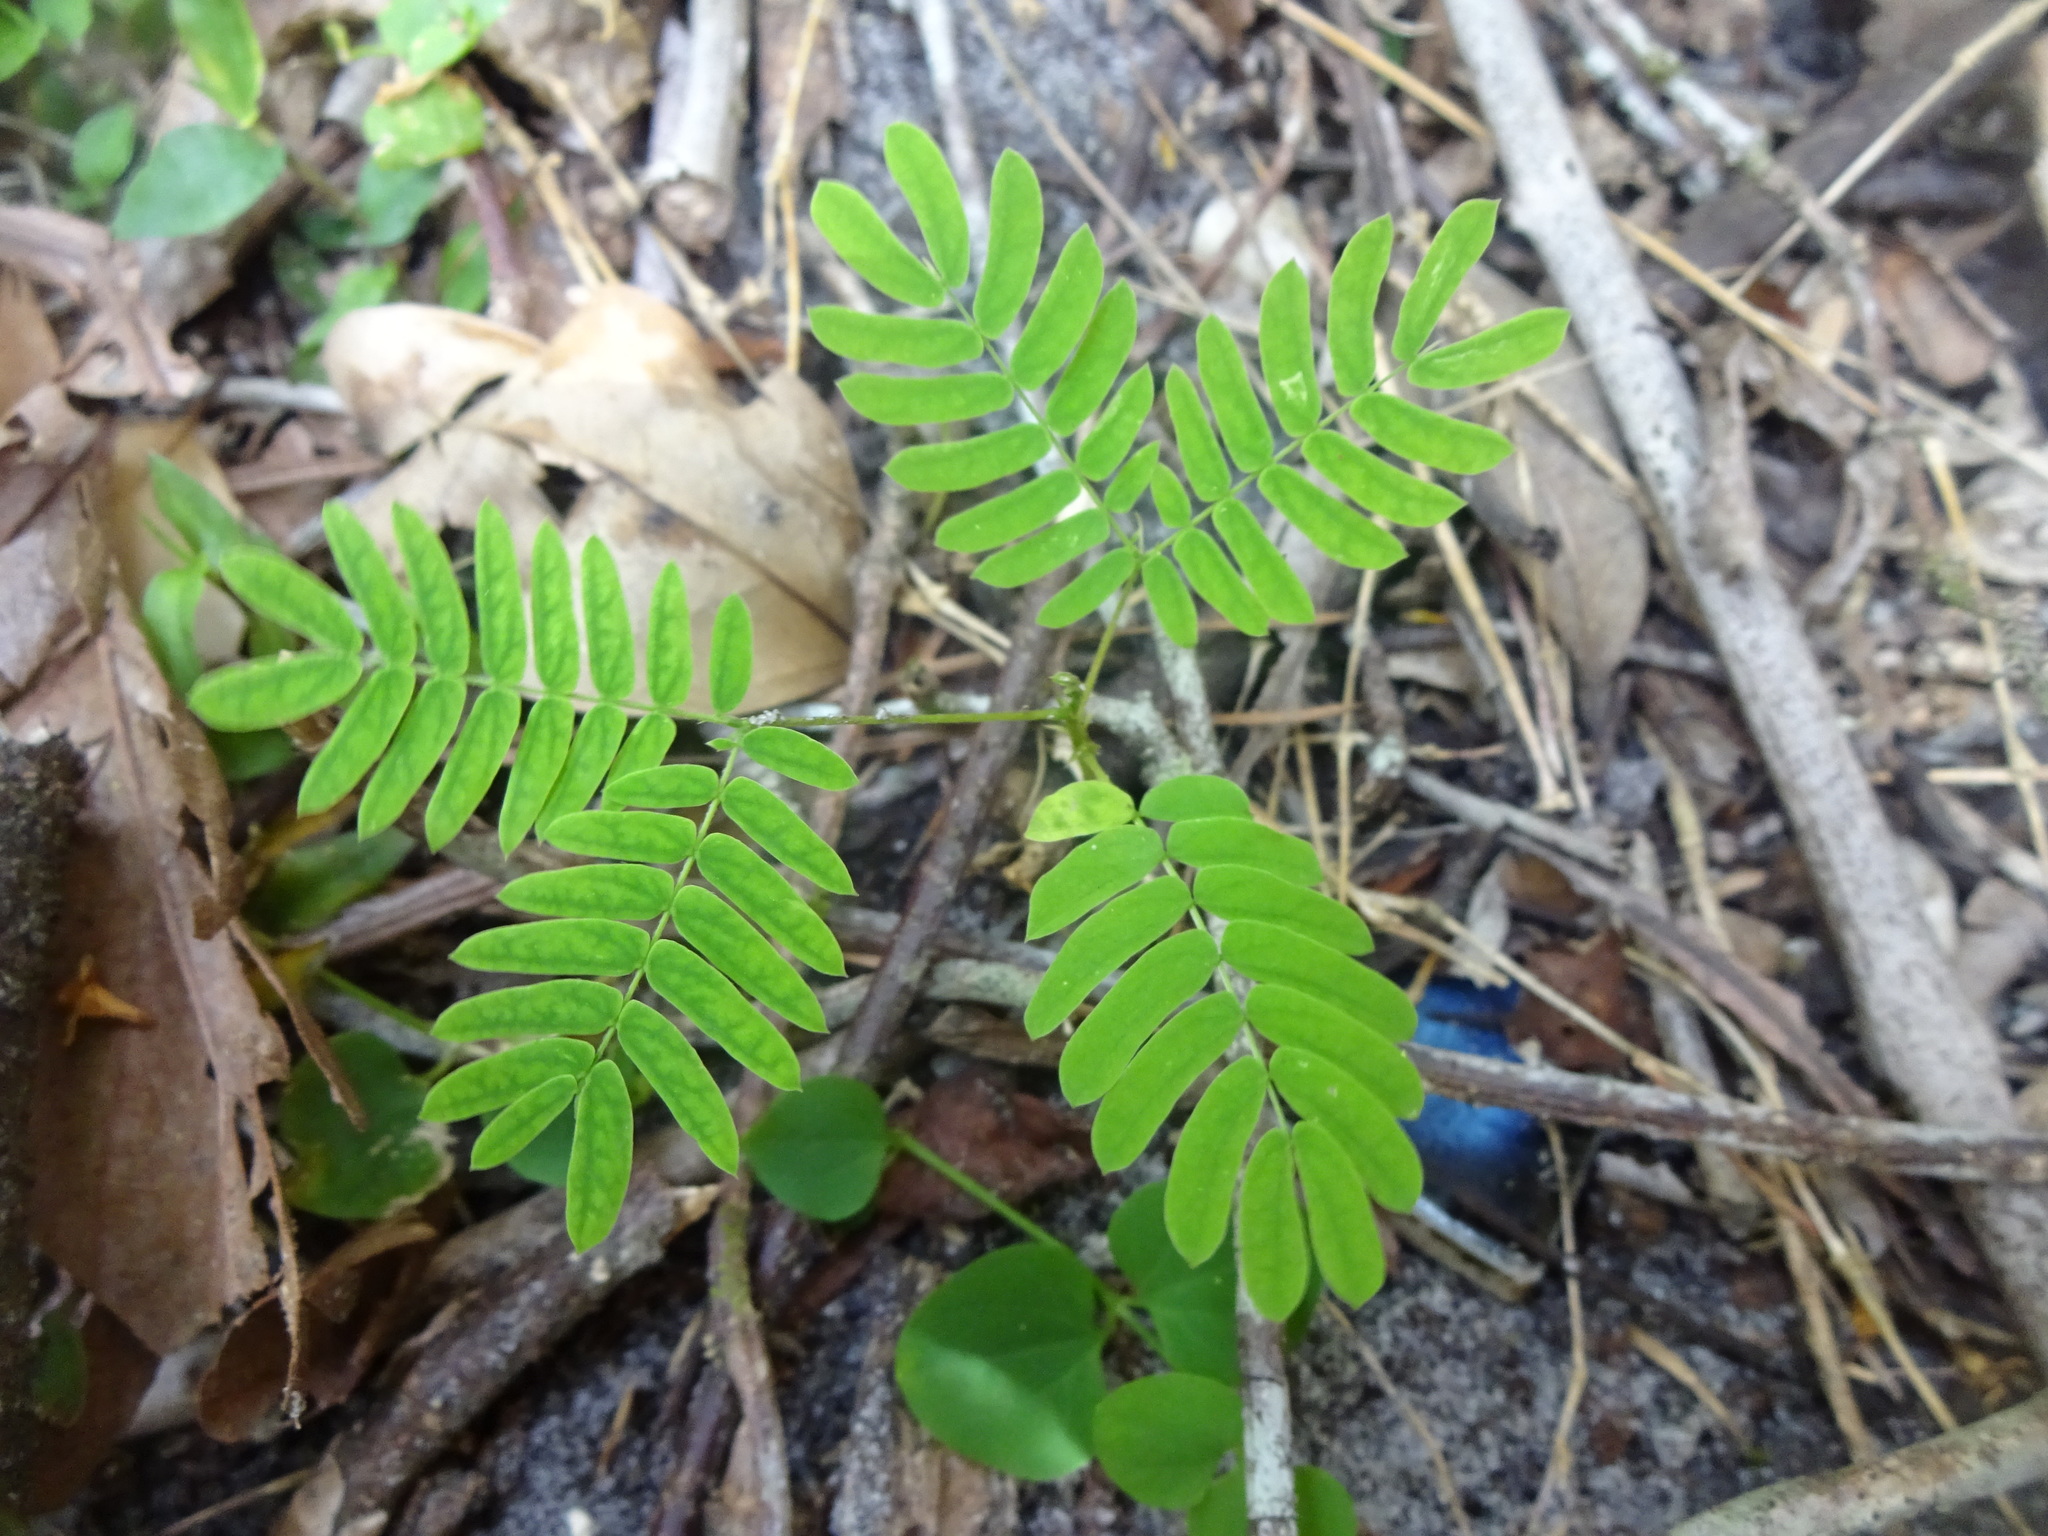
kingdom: Plantae
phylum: Tracheophyta
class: Magnoliopsida
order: Fabales
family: Fabaceae
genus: Mimosa
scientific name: Mimosa pudica
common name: Sensitive plant
